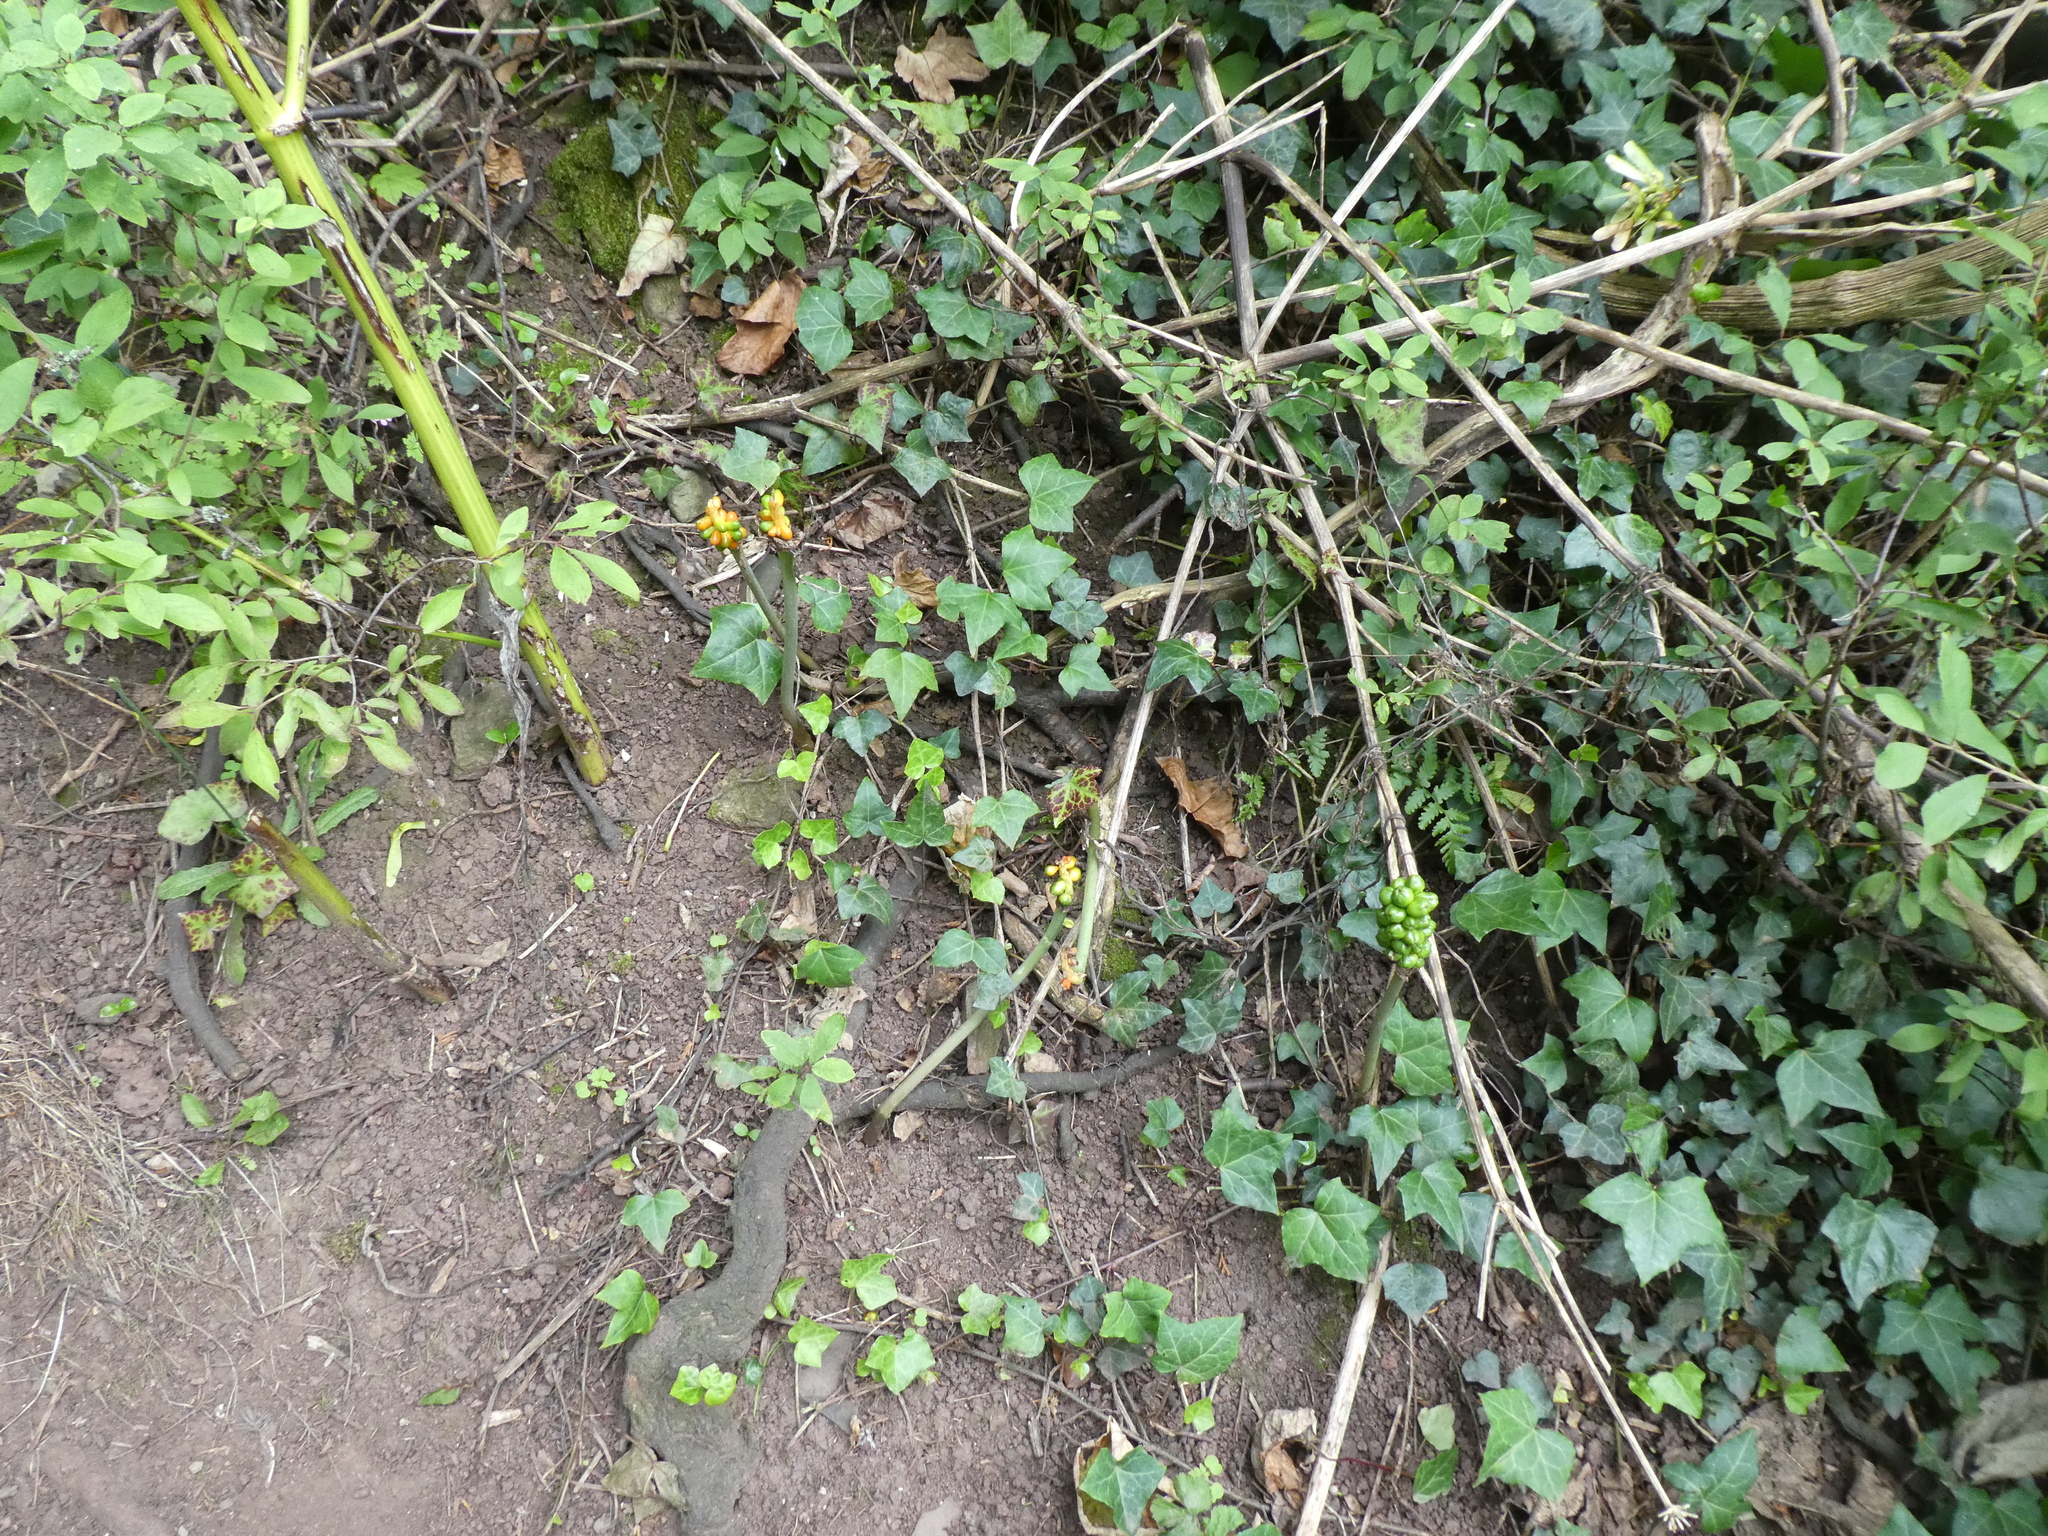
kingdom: Plantae
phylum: Tracheophyta
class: Liliopsida
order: Alismatales
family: Araceae
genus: Arum
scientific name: Arum maculatum
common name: Lords-and-ladies
